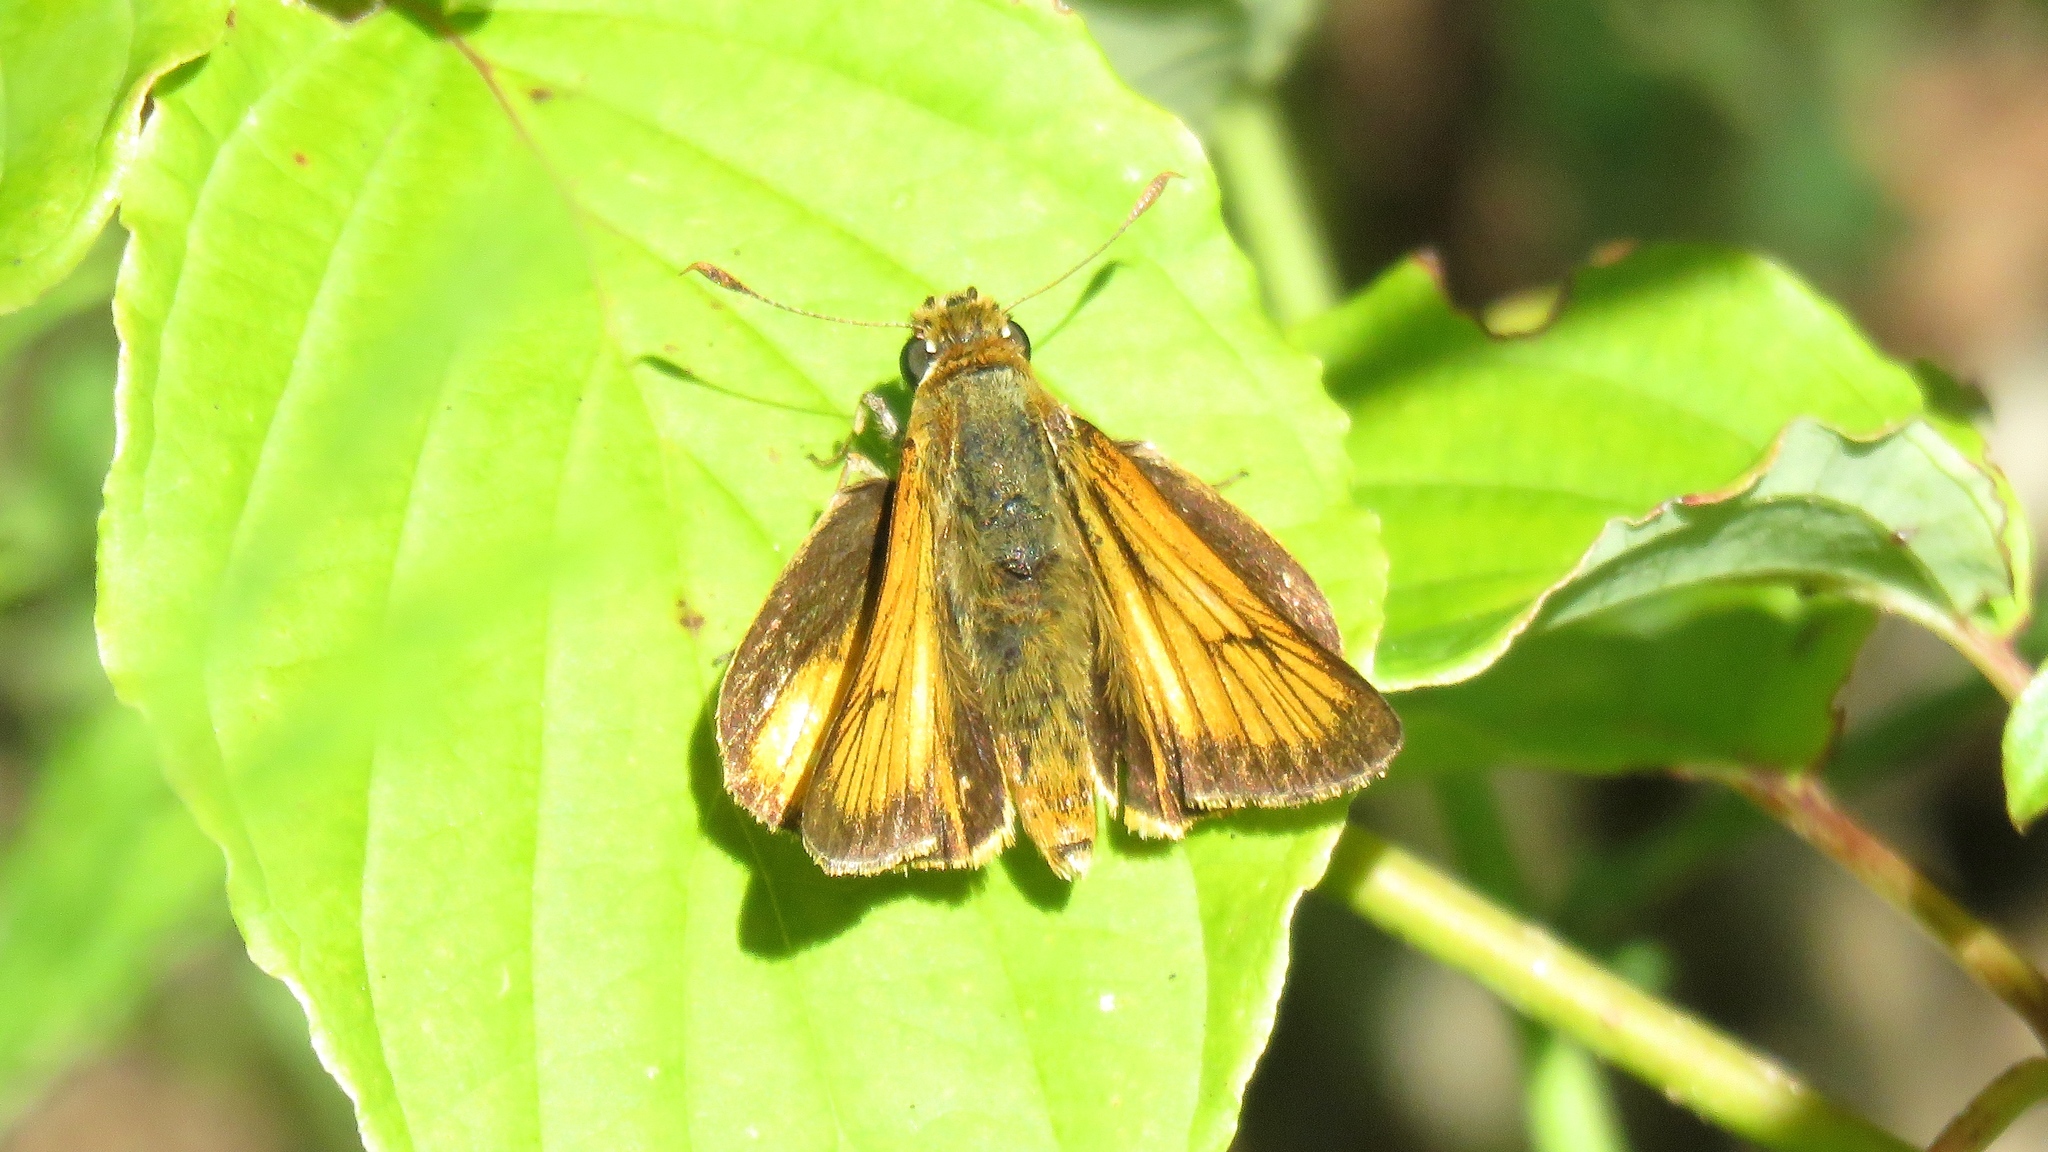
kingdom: Animalia
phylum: Arthropoda
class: Insecta
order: Lepidoptera
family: Hesperiidae
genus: Atrytone
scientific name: Atrytone delaware
